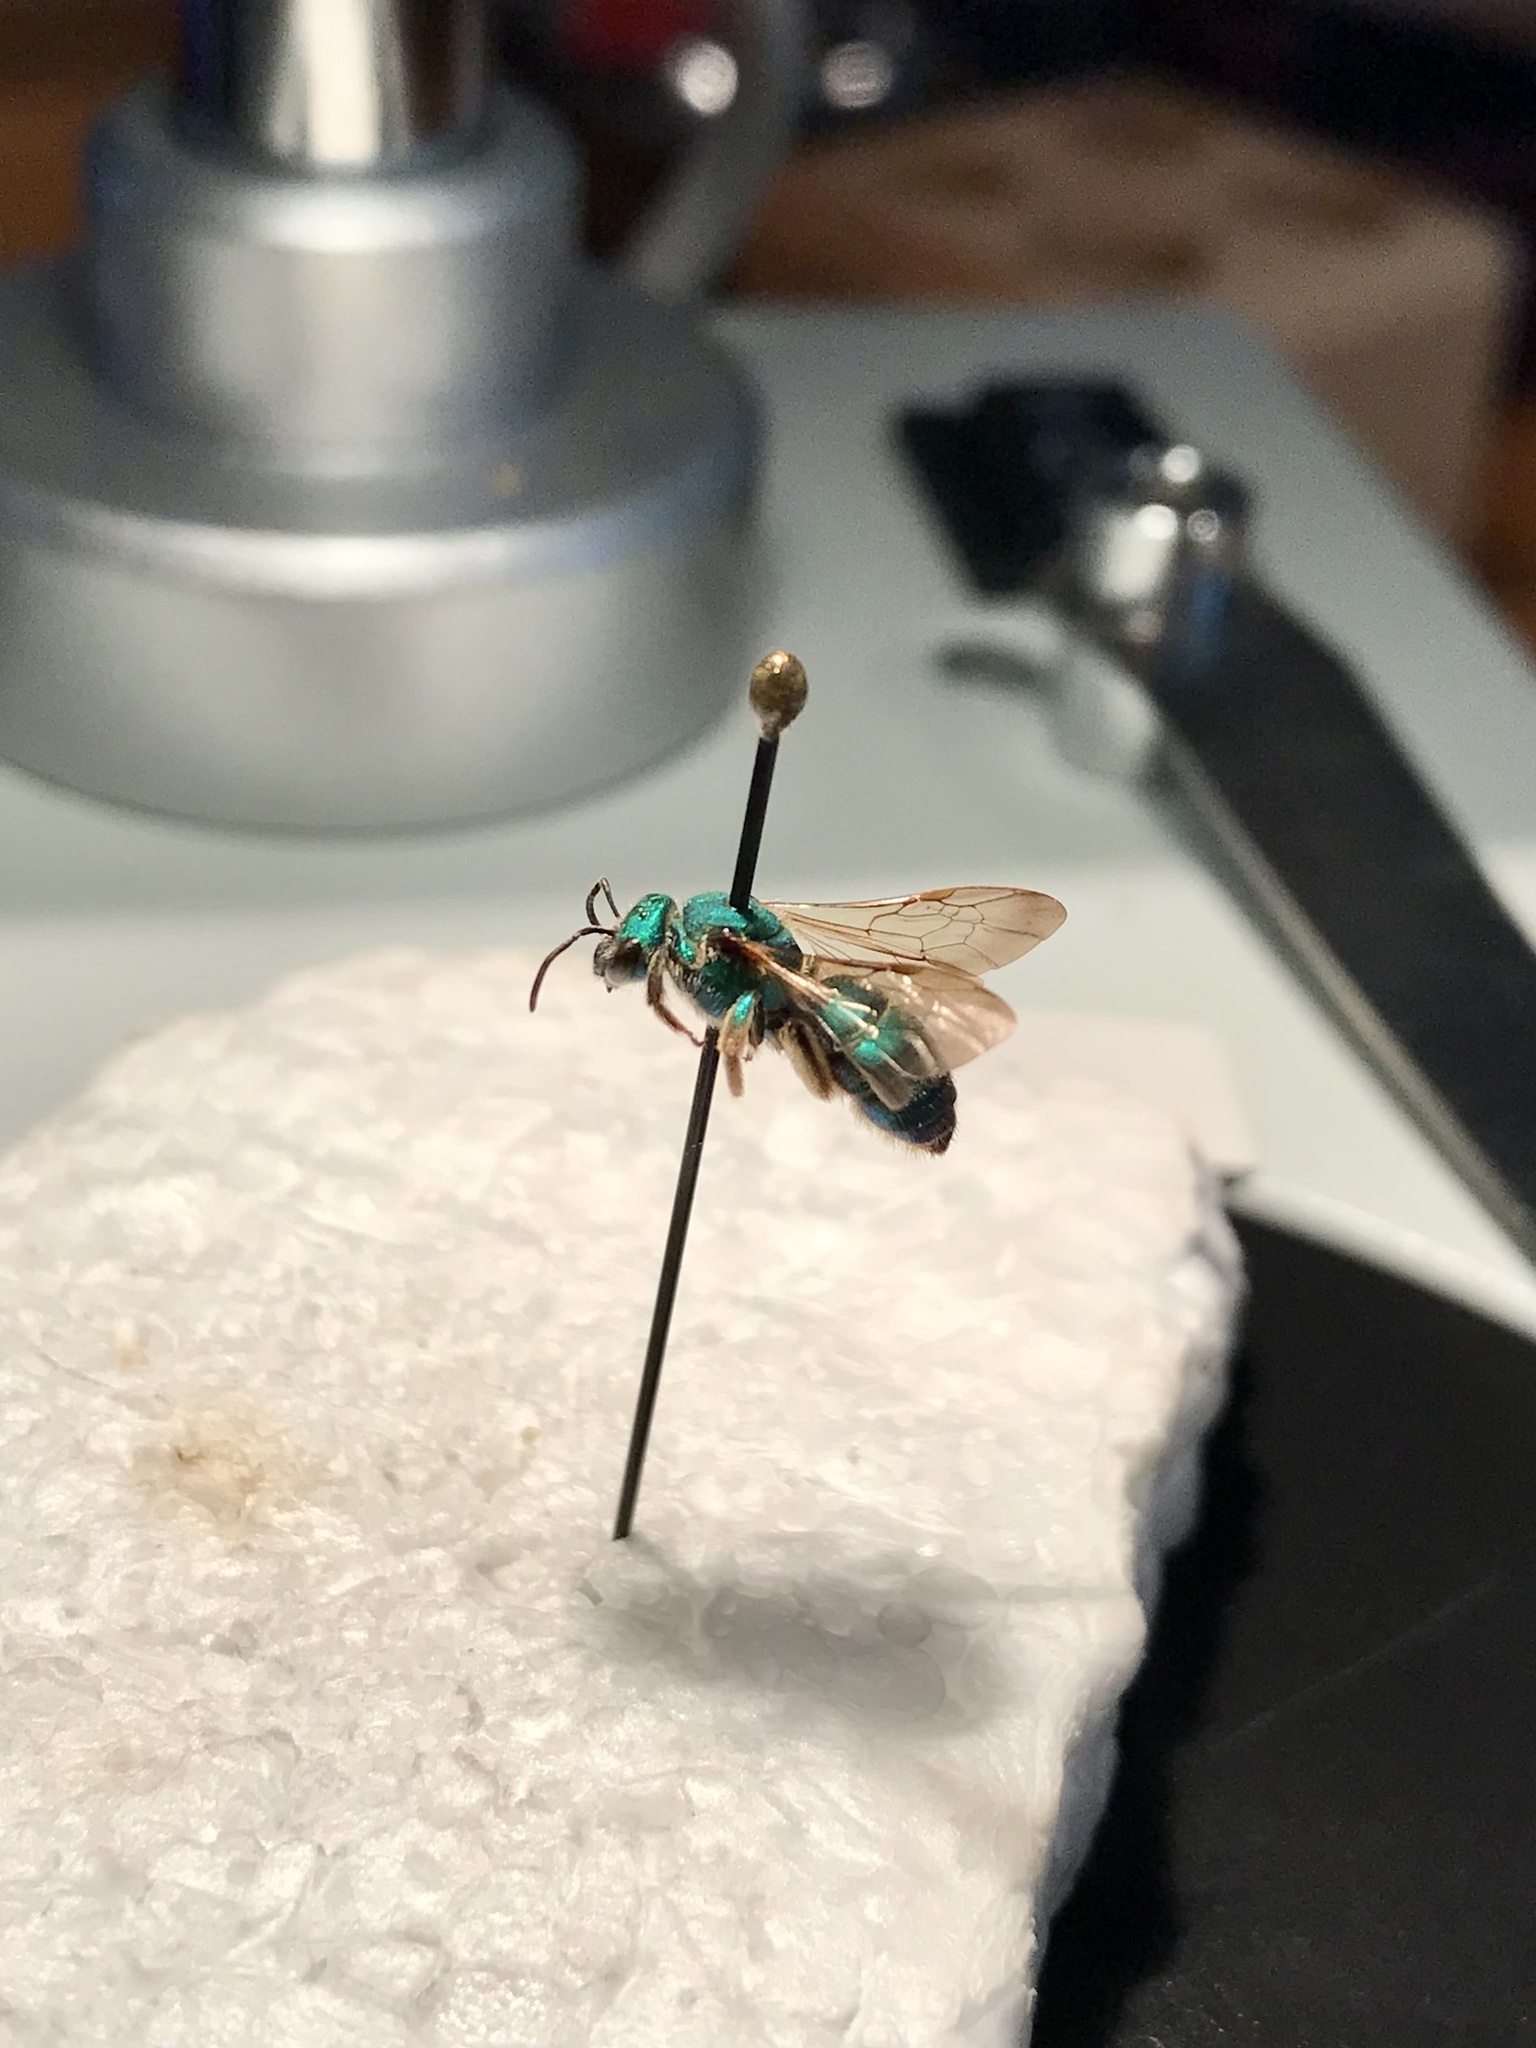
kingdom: Animalia
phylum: Arthropoda
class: Insecta
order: Hymenoptera
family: Halictidae
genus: Augochloropsis
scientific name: Augochloropsis humeralis
